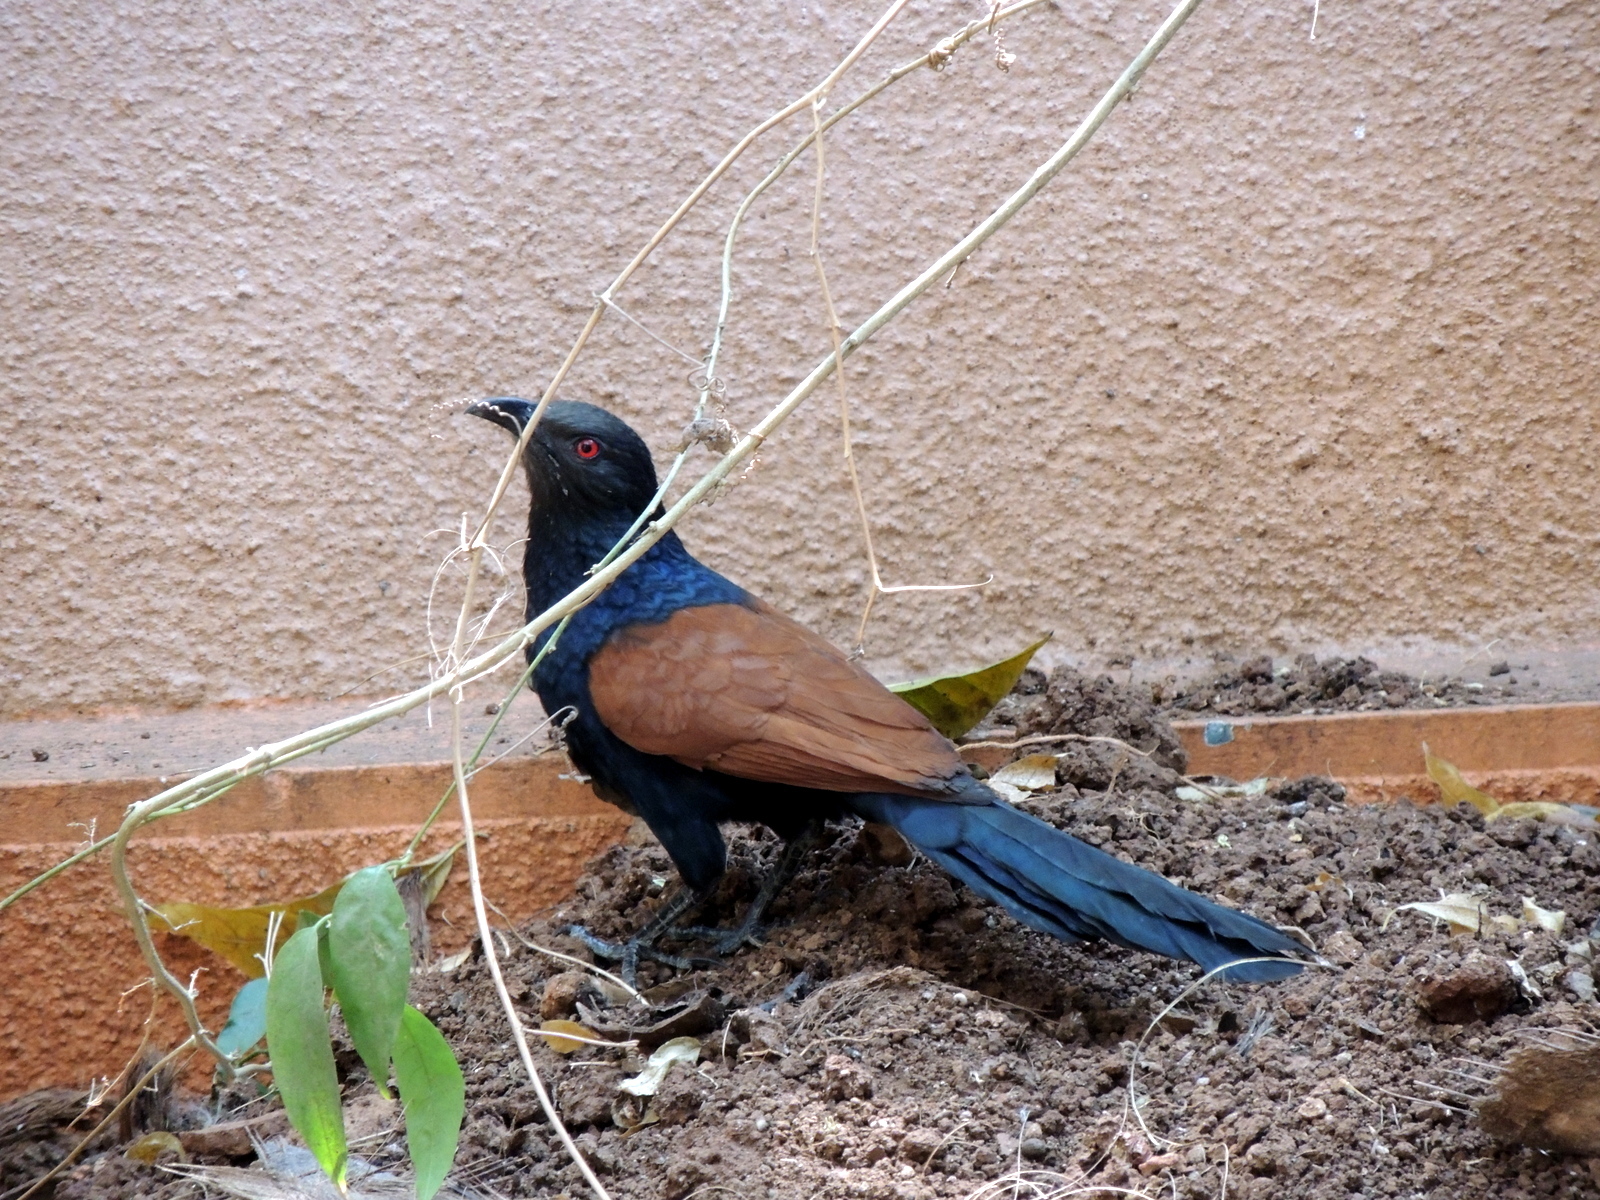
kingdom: Animalia
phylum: Chordata
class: Aves
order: Cuculiformes
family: Cuculidae
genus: Centropus
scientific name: Centropus sinensis
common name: Greater coucal
